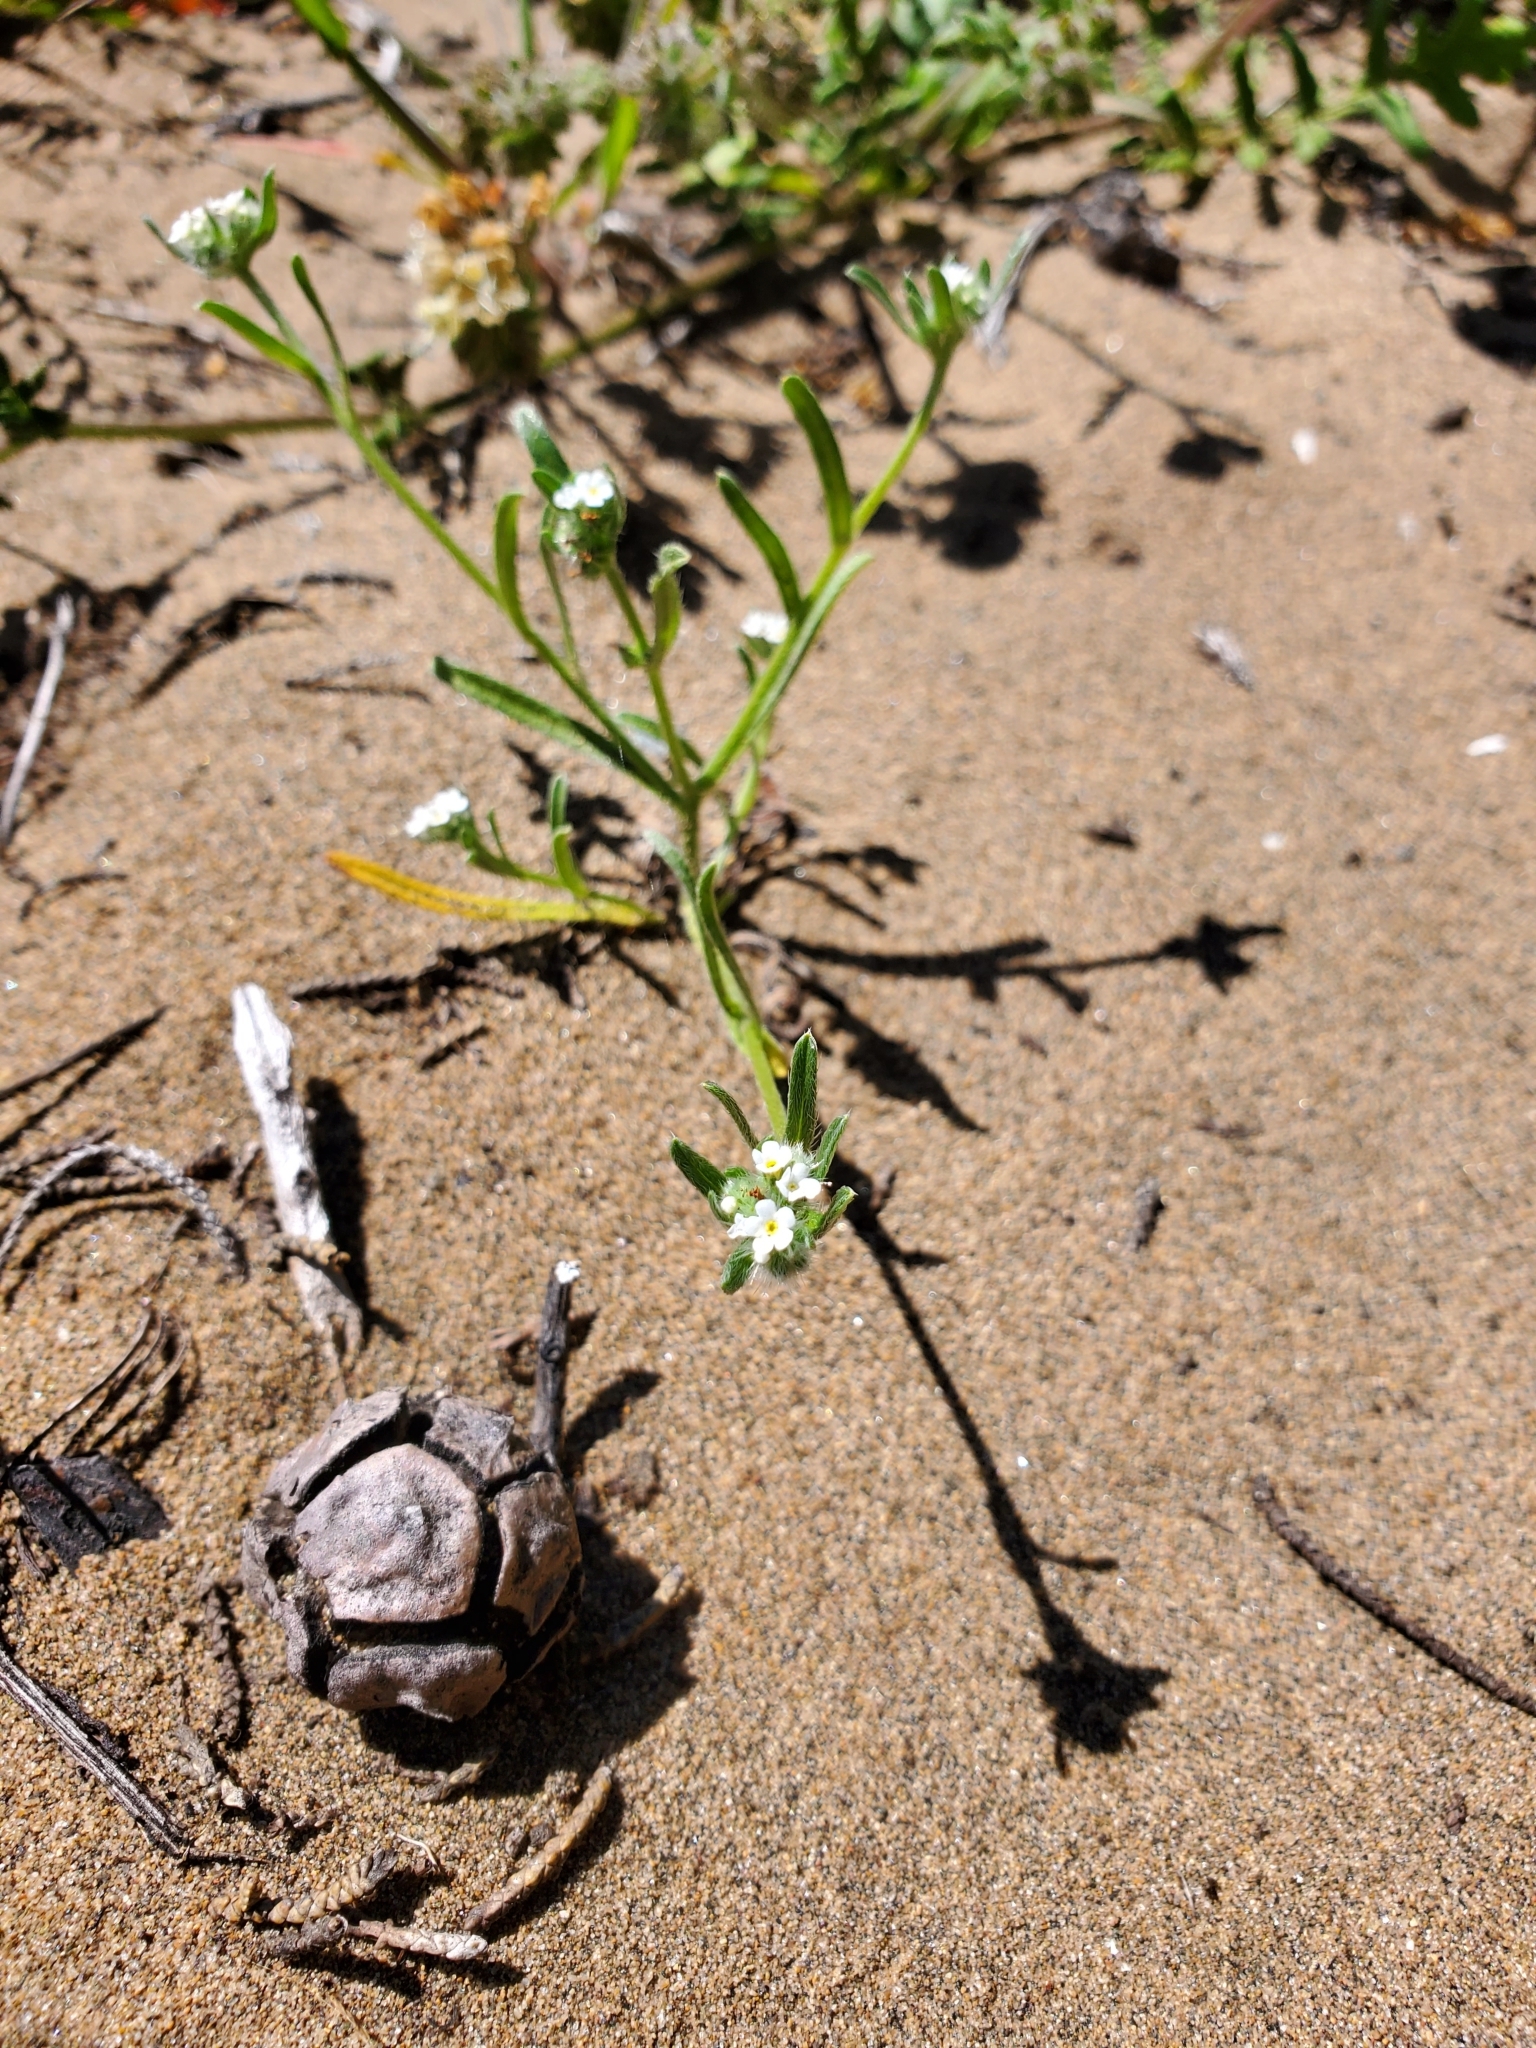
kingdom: Plantae
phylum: Tracheophyta
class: Magnoliopsida
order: Boraginales
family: Boraginaceae
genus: Cryptantha
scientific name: Cryptantha leiocarpa
